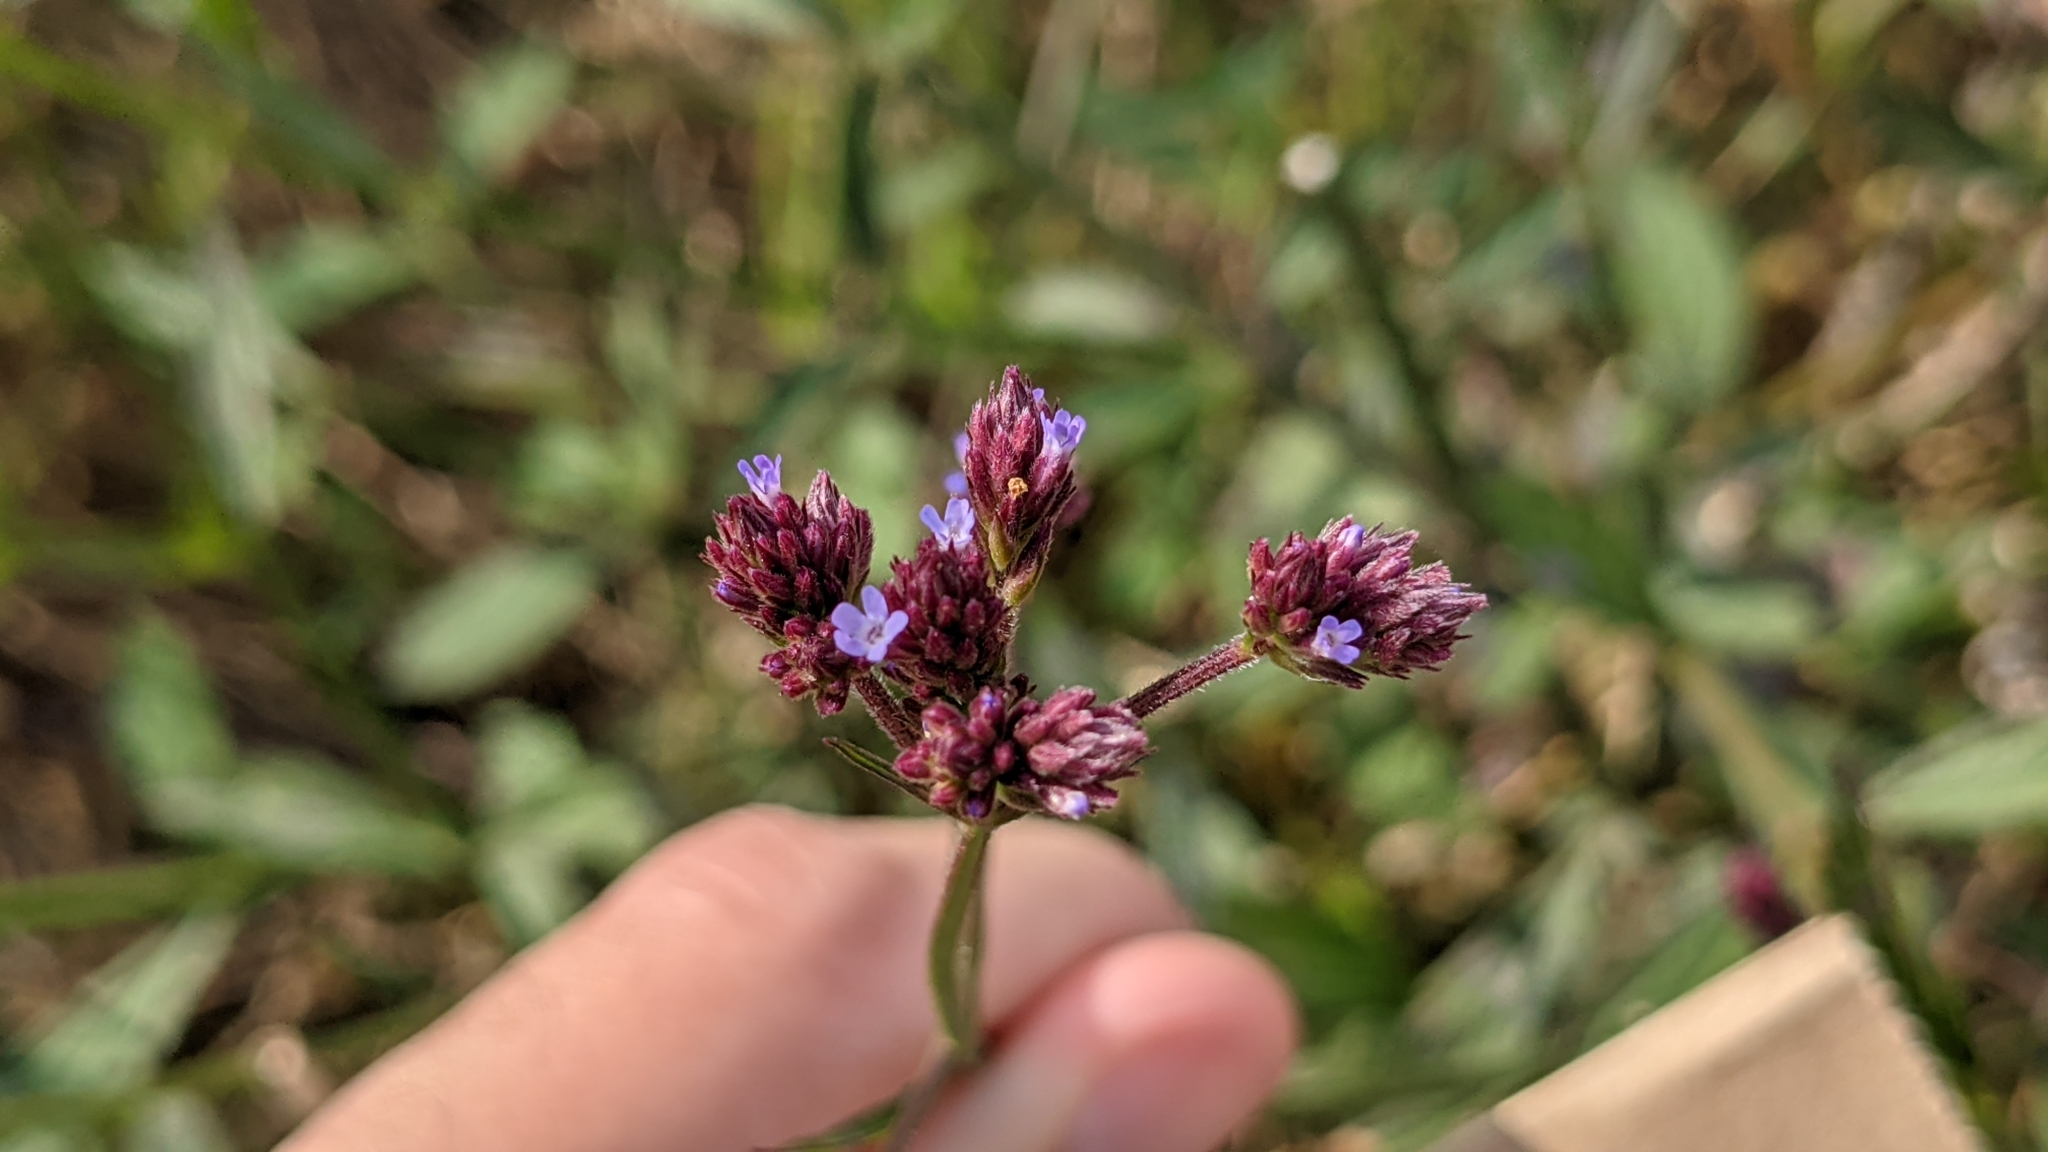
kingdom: Plantae
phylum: Tracheophyta
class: Magnoliopsida
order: Lamiales
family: Verbenaceae
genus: Verbena
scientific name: Verbena brasiliensis
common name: Brazilian vervain
